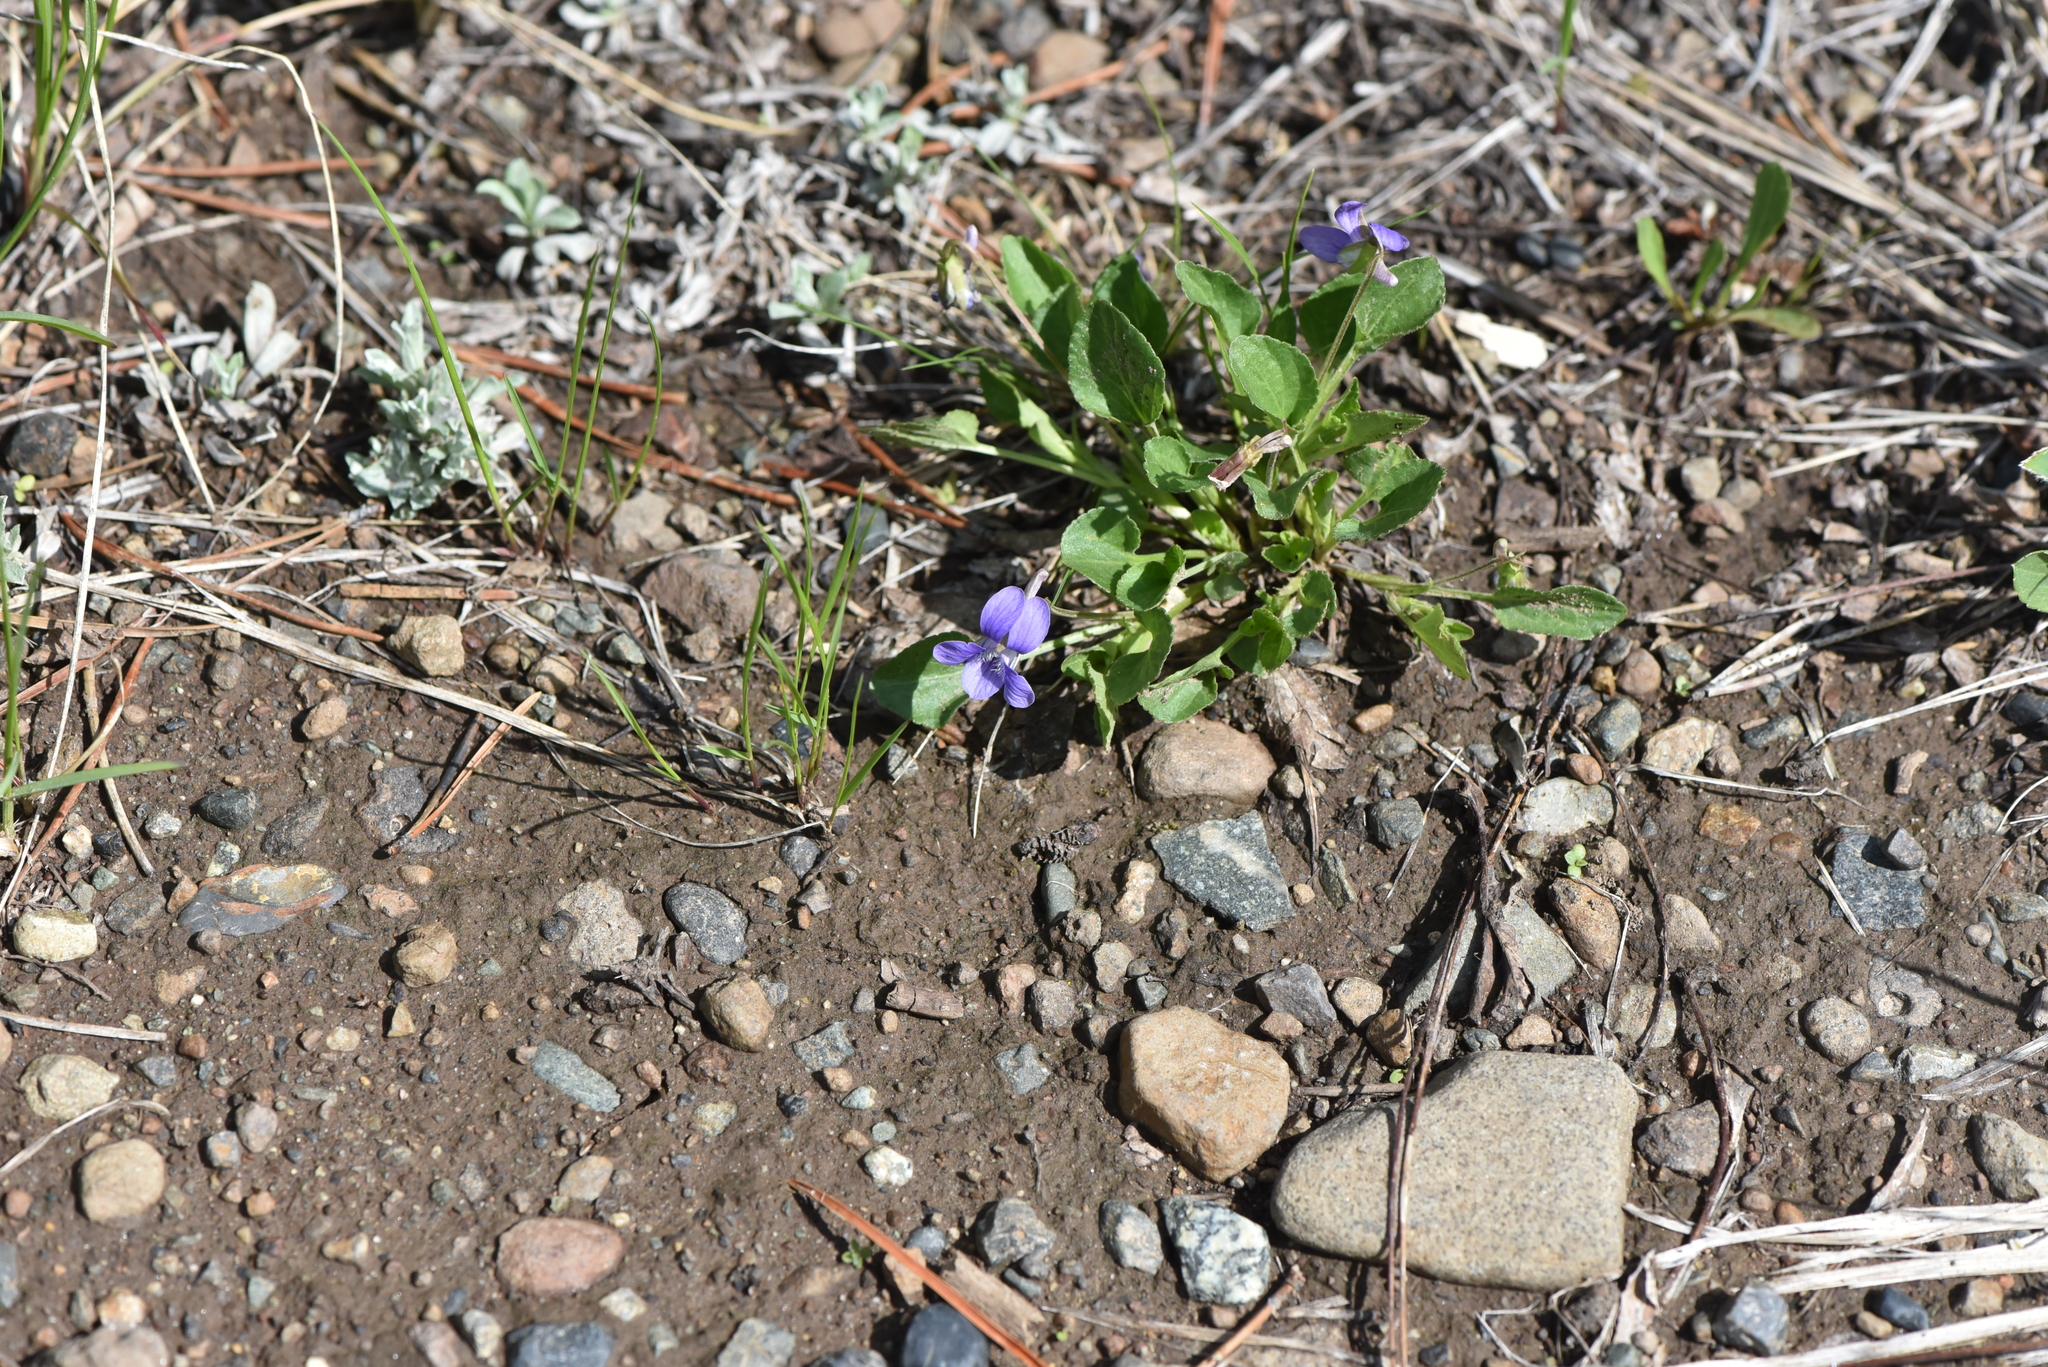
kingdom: Plantae
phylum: Tracheophyta
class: Magnoliopsida
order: Malpighiales
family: Violaceae
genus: Viola
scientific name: Viola adunca
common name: Sand violet
